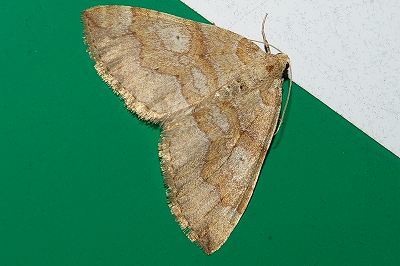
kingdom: Animalia
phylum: Arthropoda
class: Insecta
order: Lepidoptera
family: Geometridae
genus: Idiotephria
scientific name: Idiotephria evanescens
